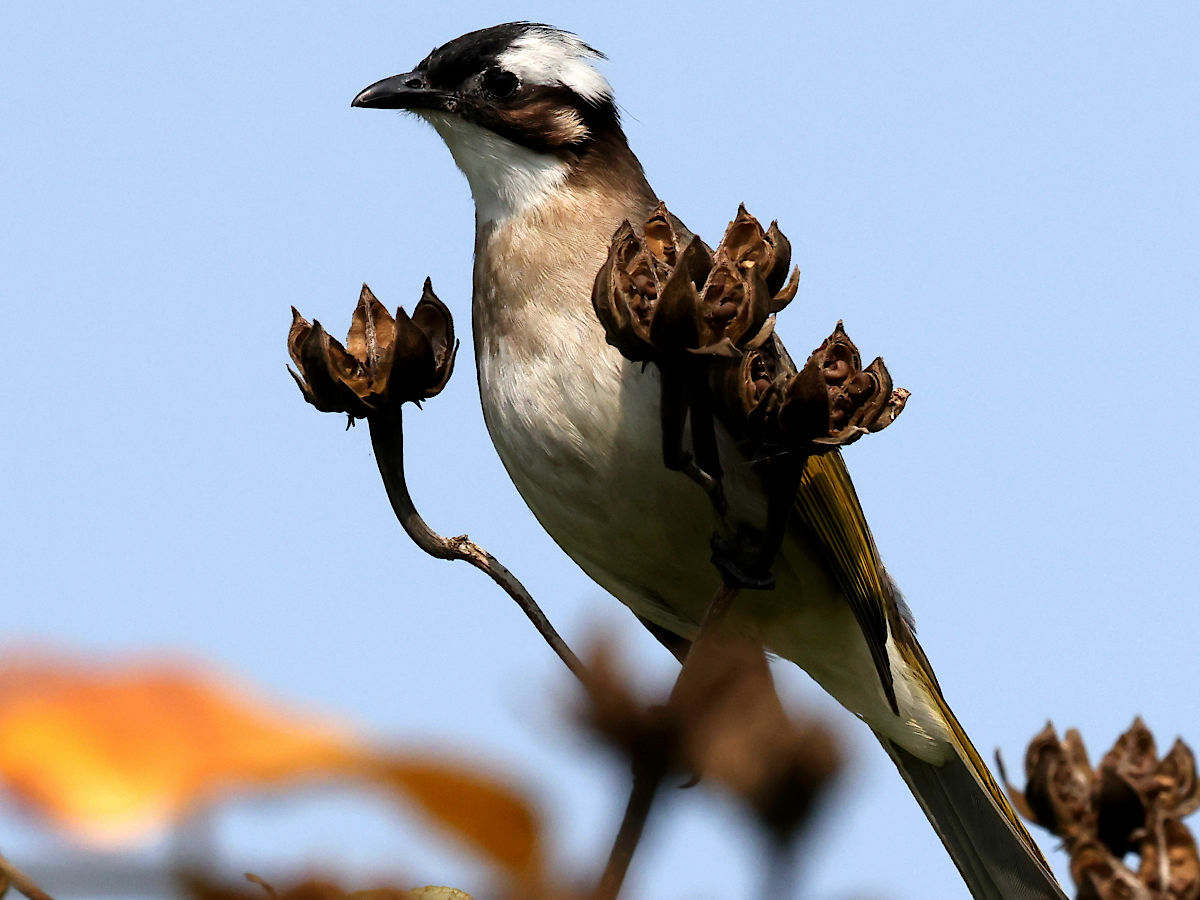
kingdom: Animalia
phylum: Chordata
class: Aves
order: Passeriformes
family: Pycnonotidae
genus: Pycnonotus
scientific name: Pycnonotus sinensis
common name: Light-vented bulbul
